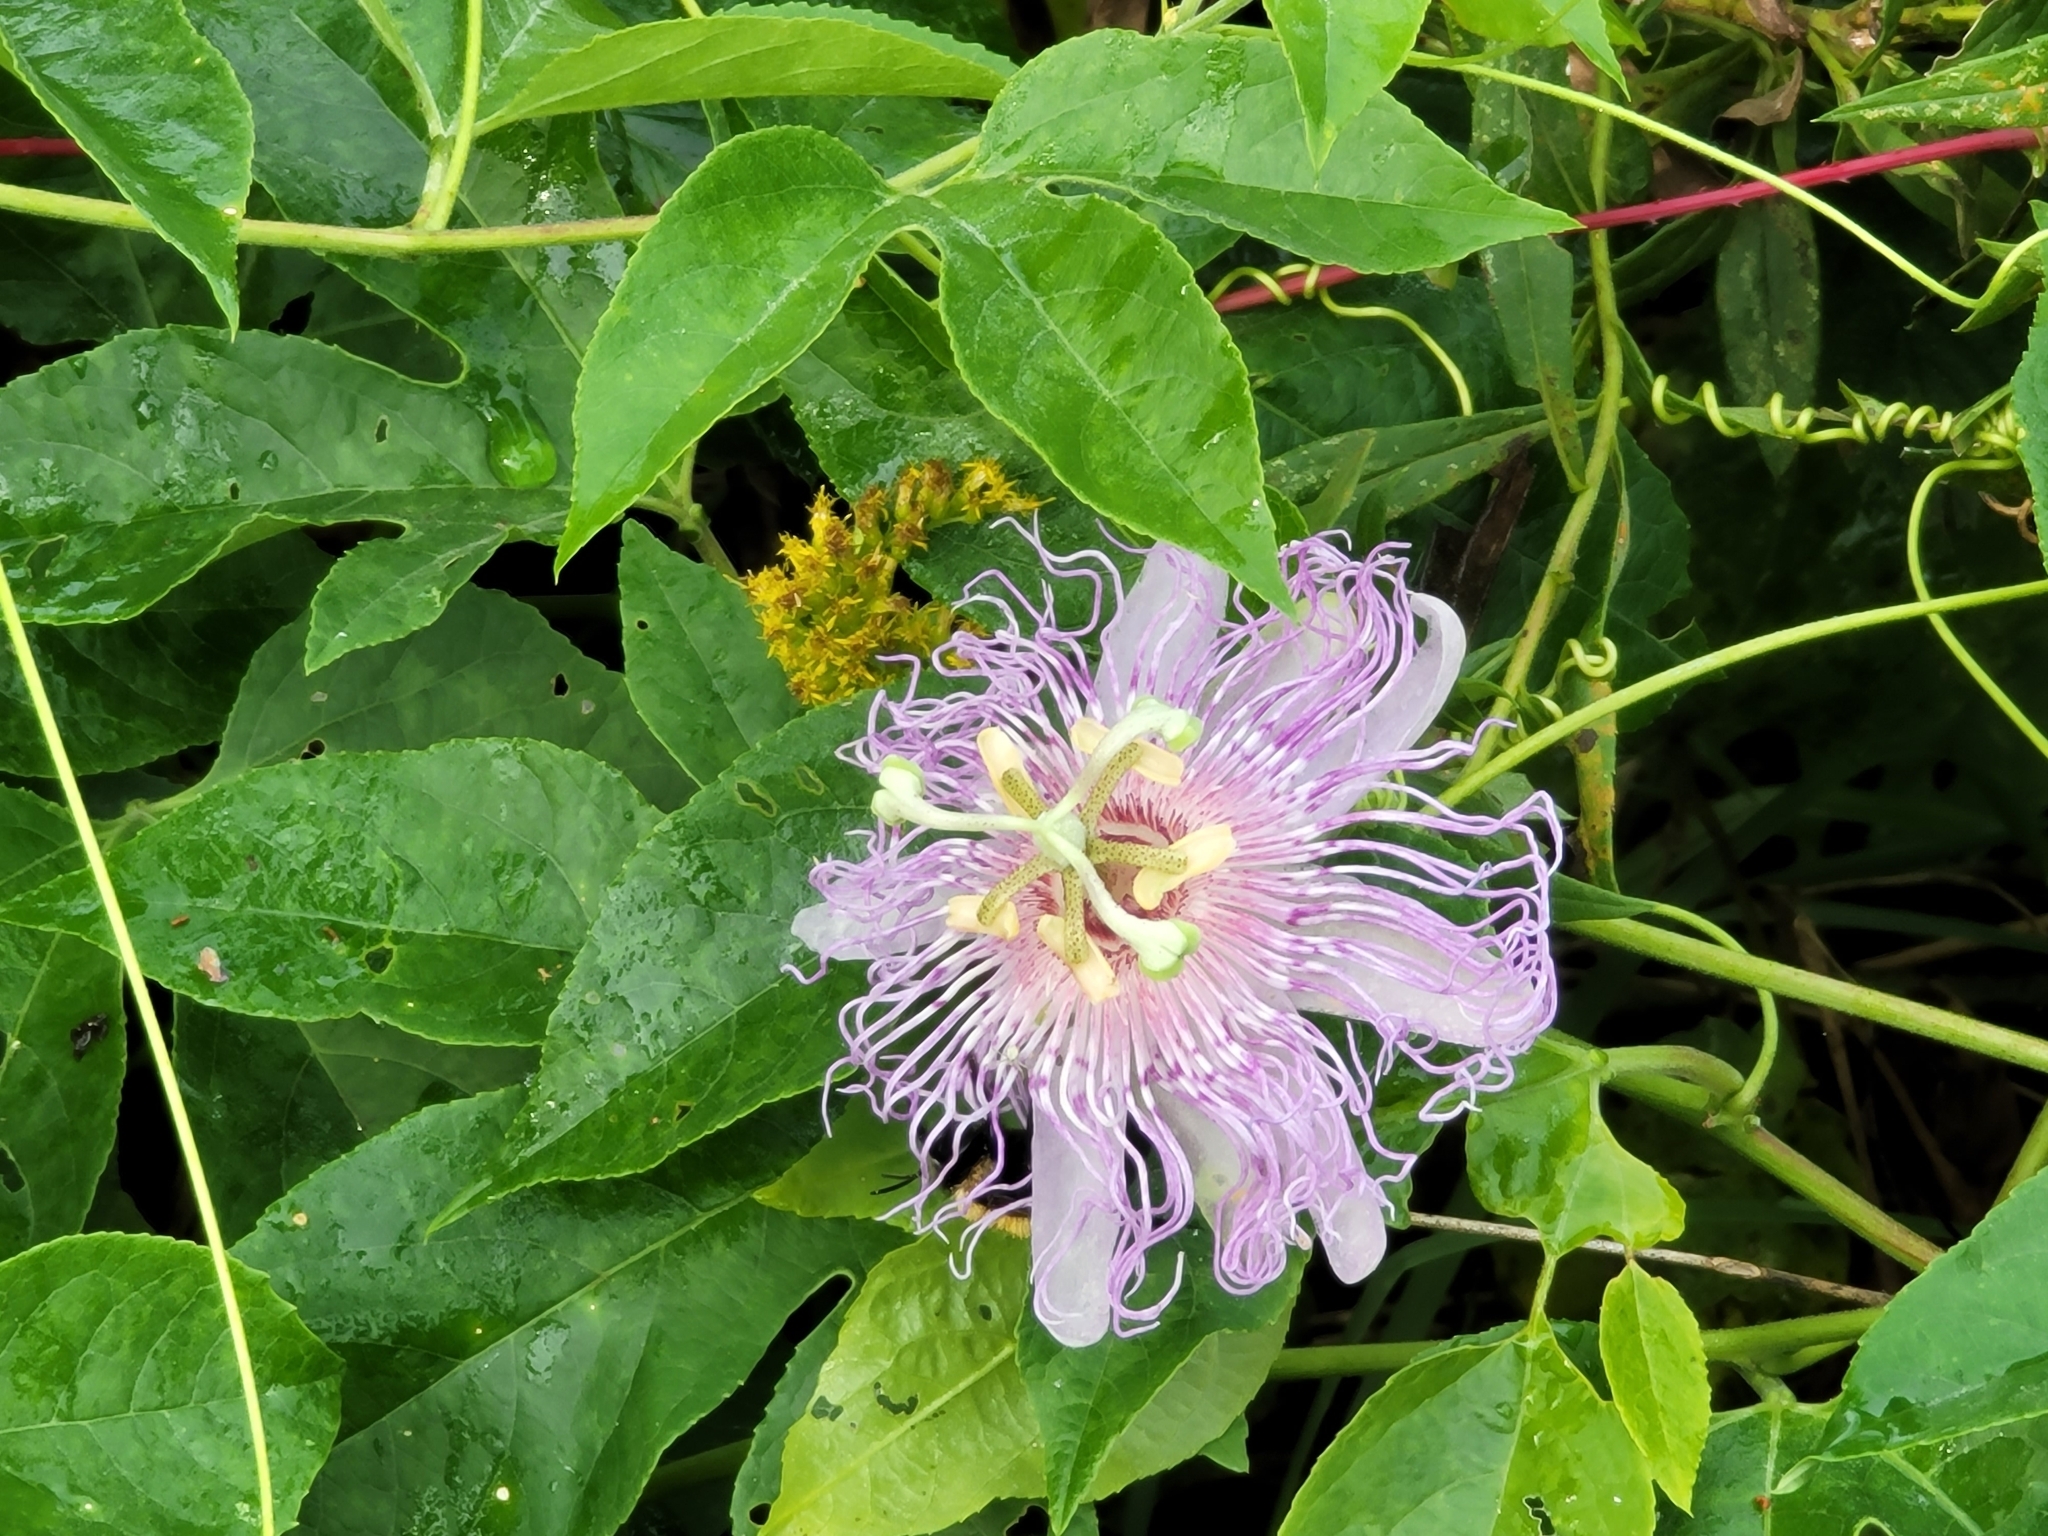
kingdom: Plantae
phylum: Tracheophyta
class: Magnoliopsida
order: Malpighiales
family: Passifloraceae
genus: Passiflora
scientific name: Passiflora incarnata
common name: Apricot-vine
